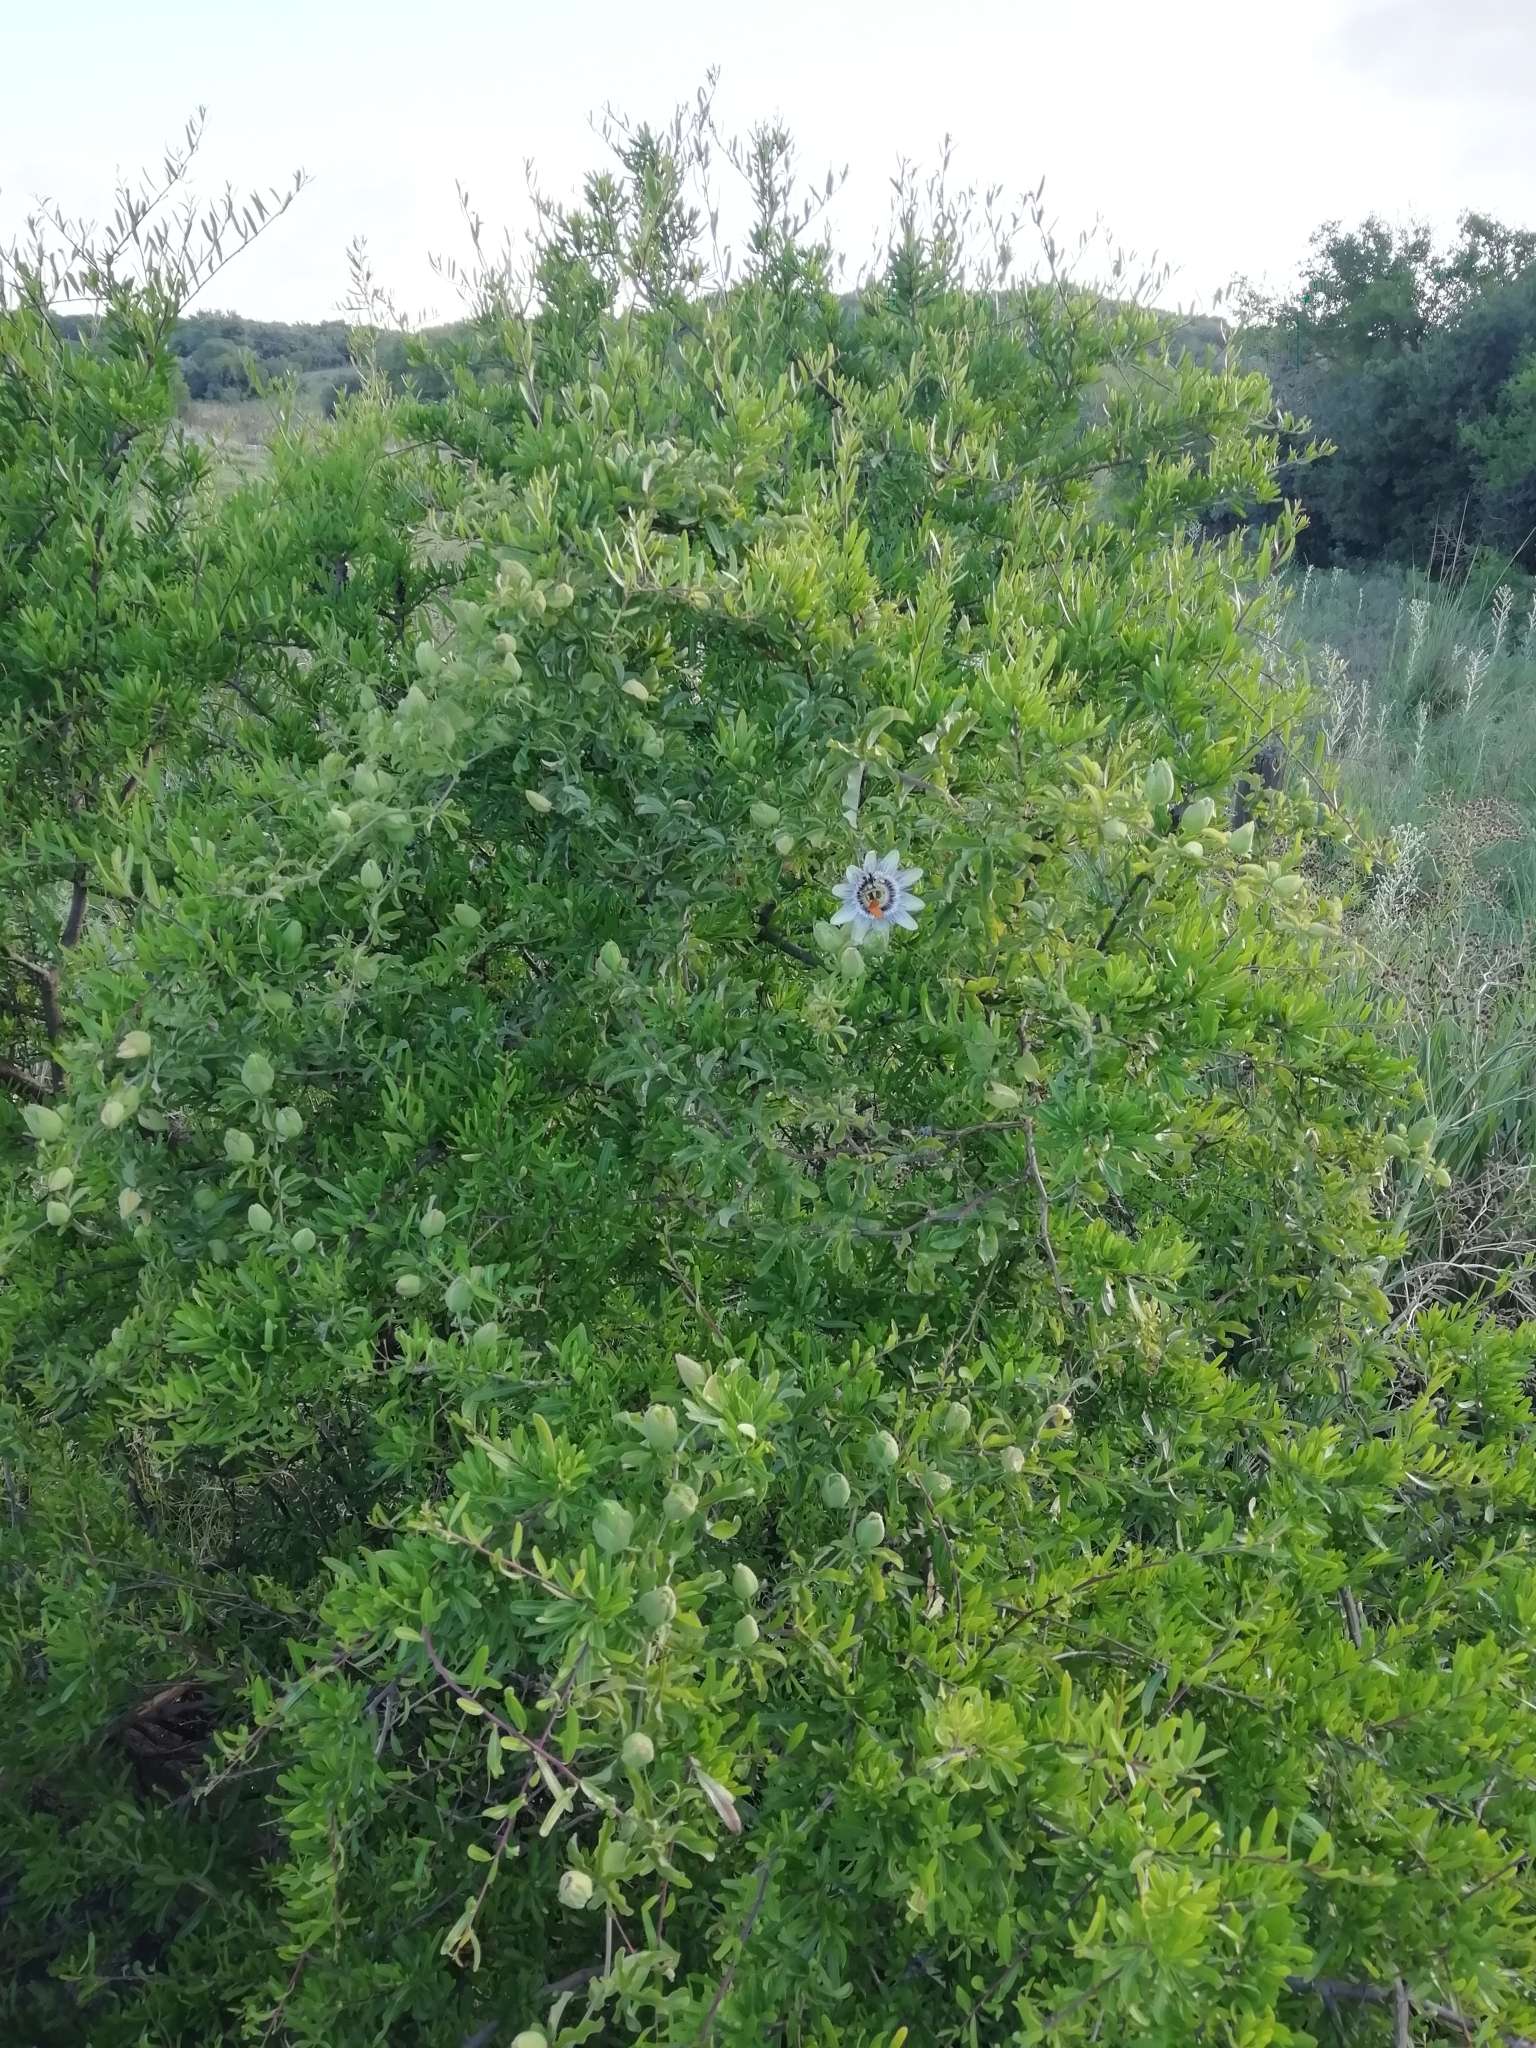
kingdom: Plantae
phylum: Tracheophyta
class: Magnoliopsida
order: Malpighiales
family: Passifloraceae
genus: Passiflora
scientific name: Passiflora caerulea
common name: Blue passionflower
